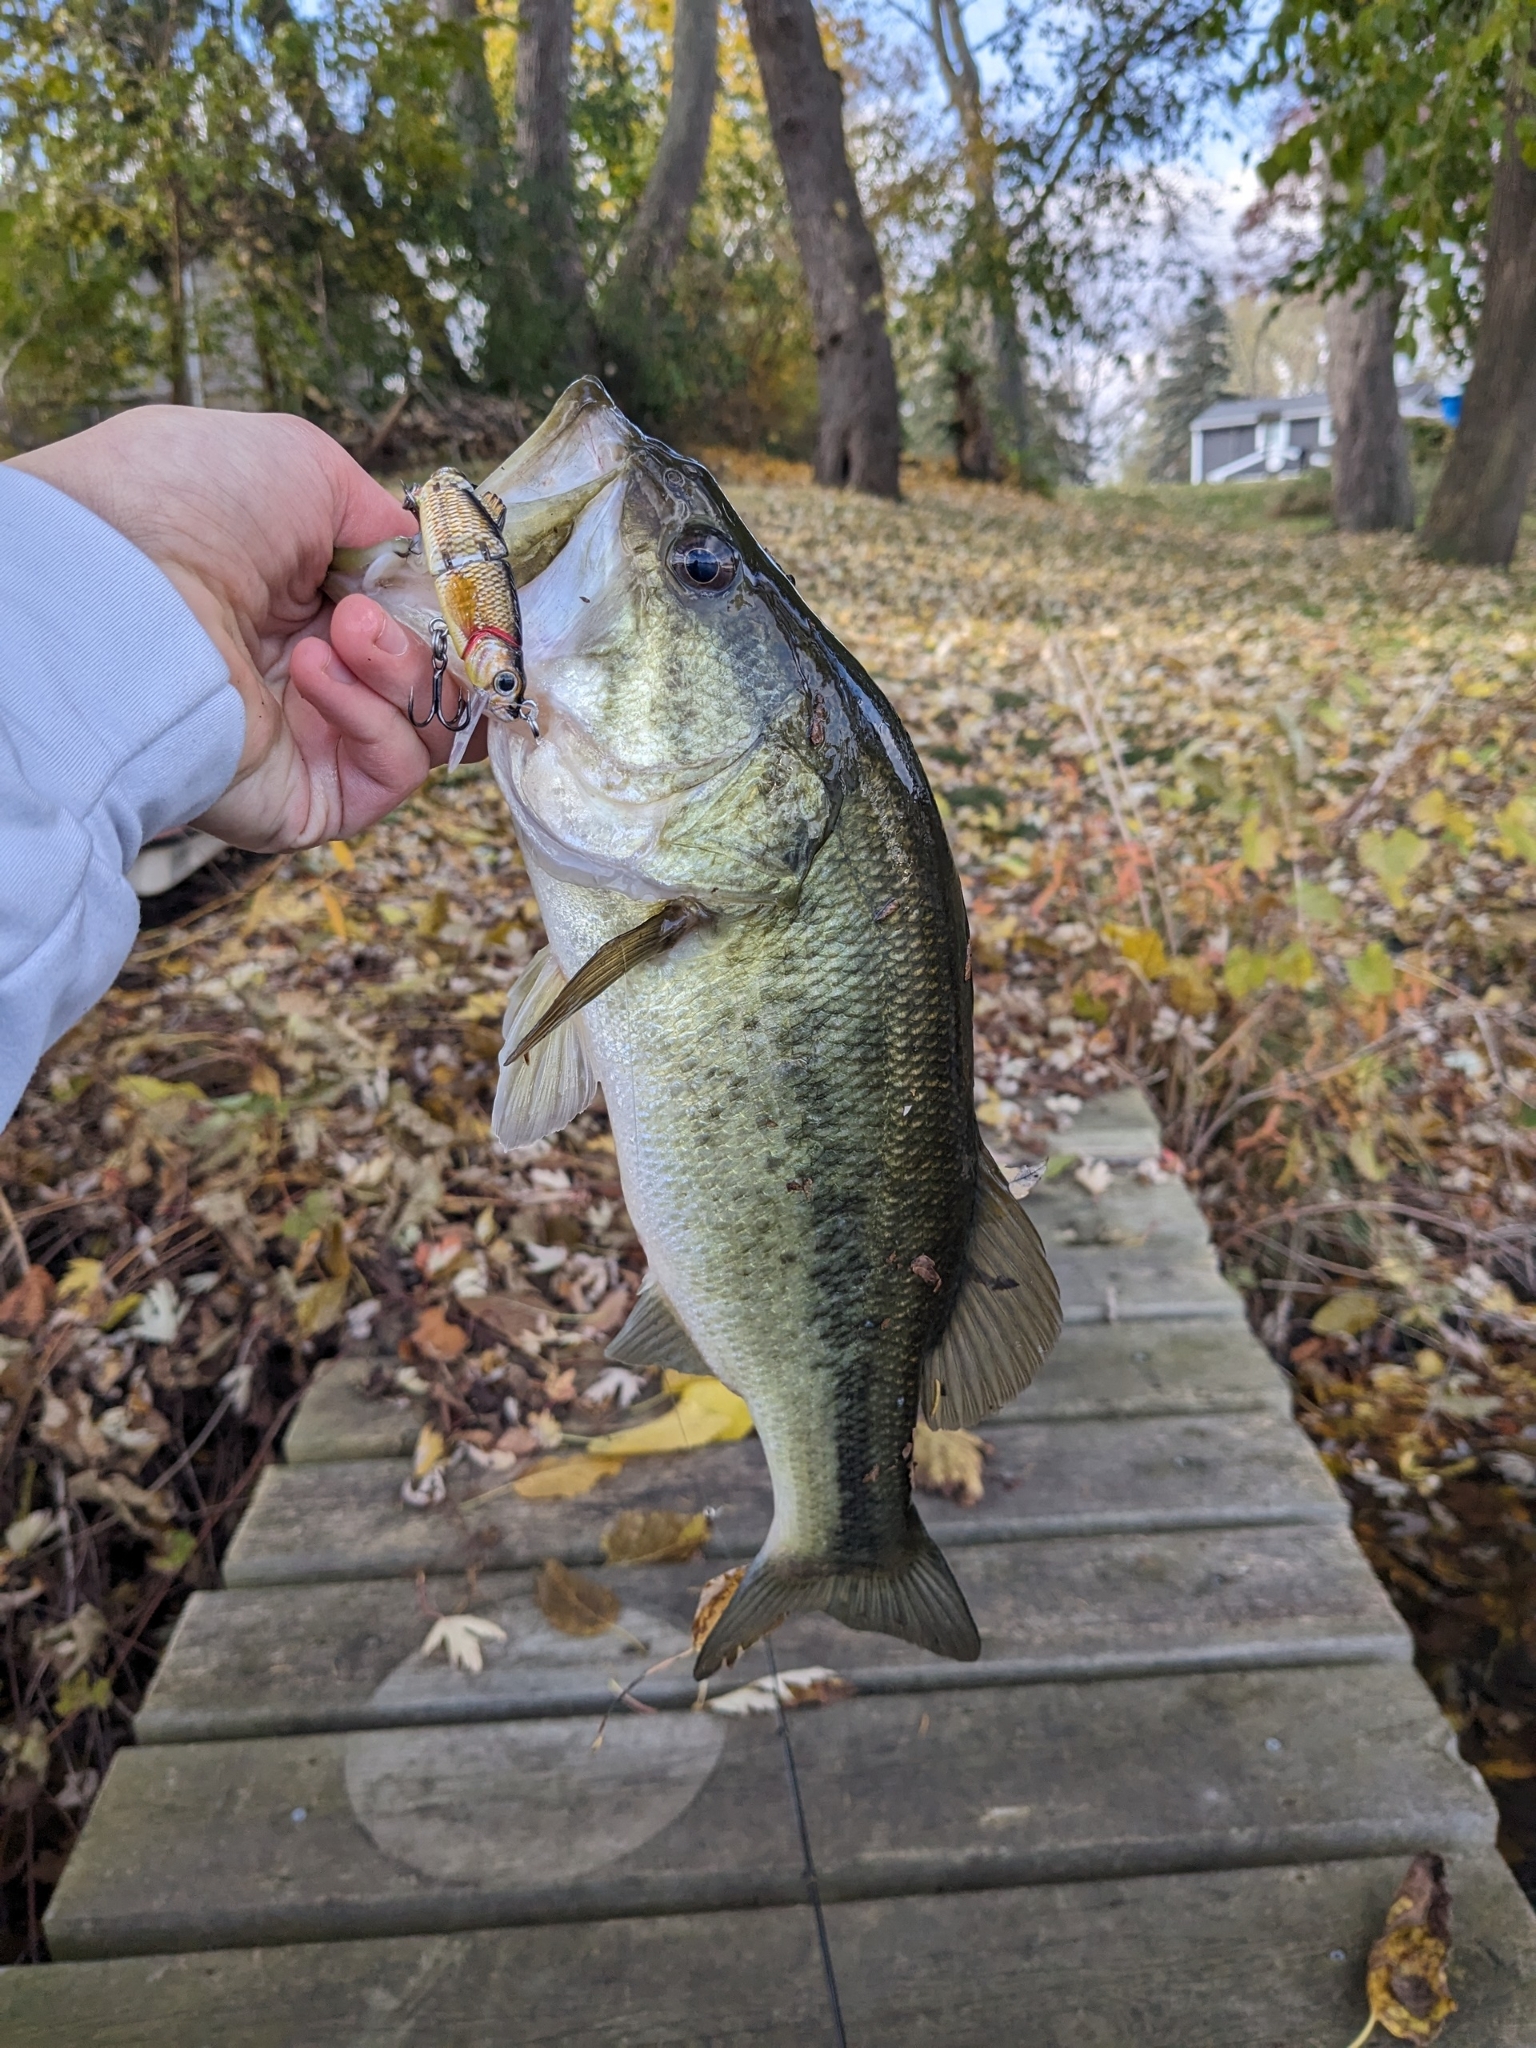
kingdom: Animalia
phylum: Chordata
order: Perciformes
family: Centrarchidae
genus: Micropterus
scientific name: Micropterus
